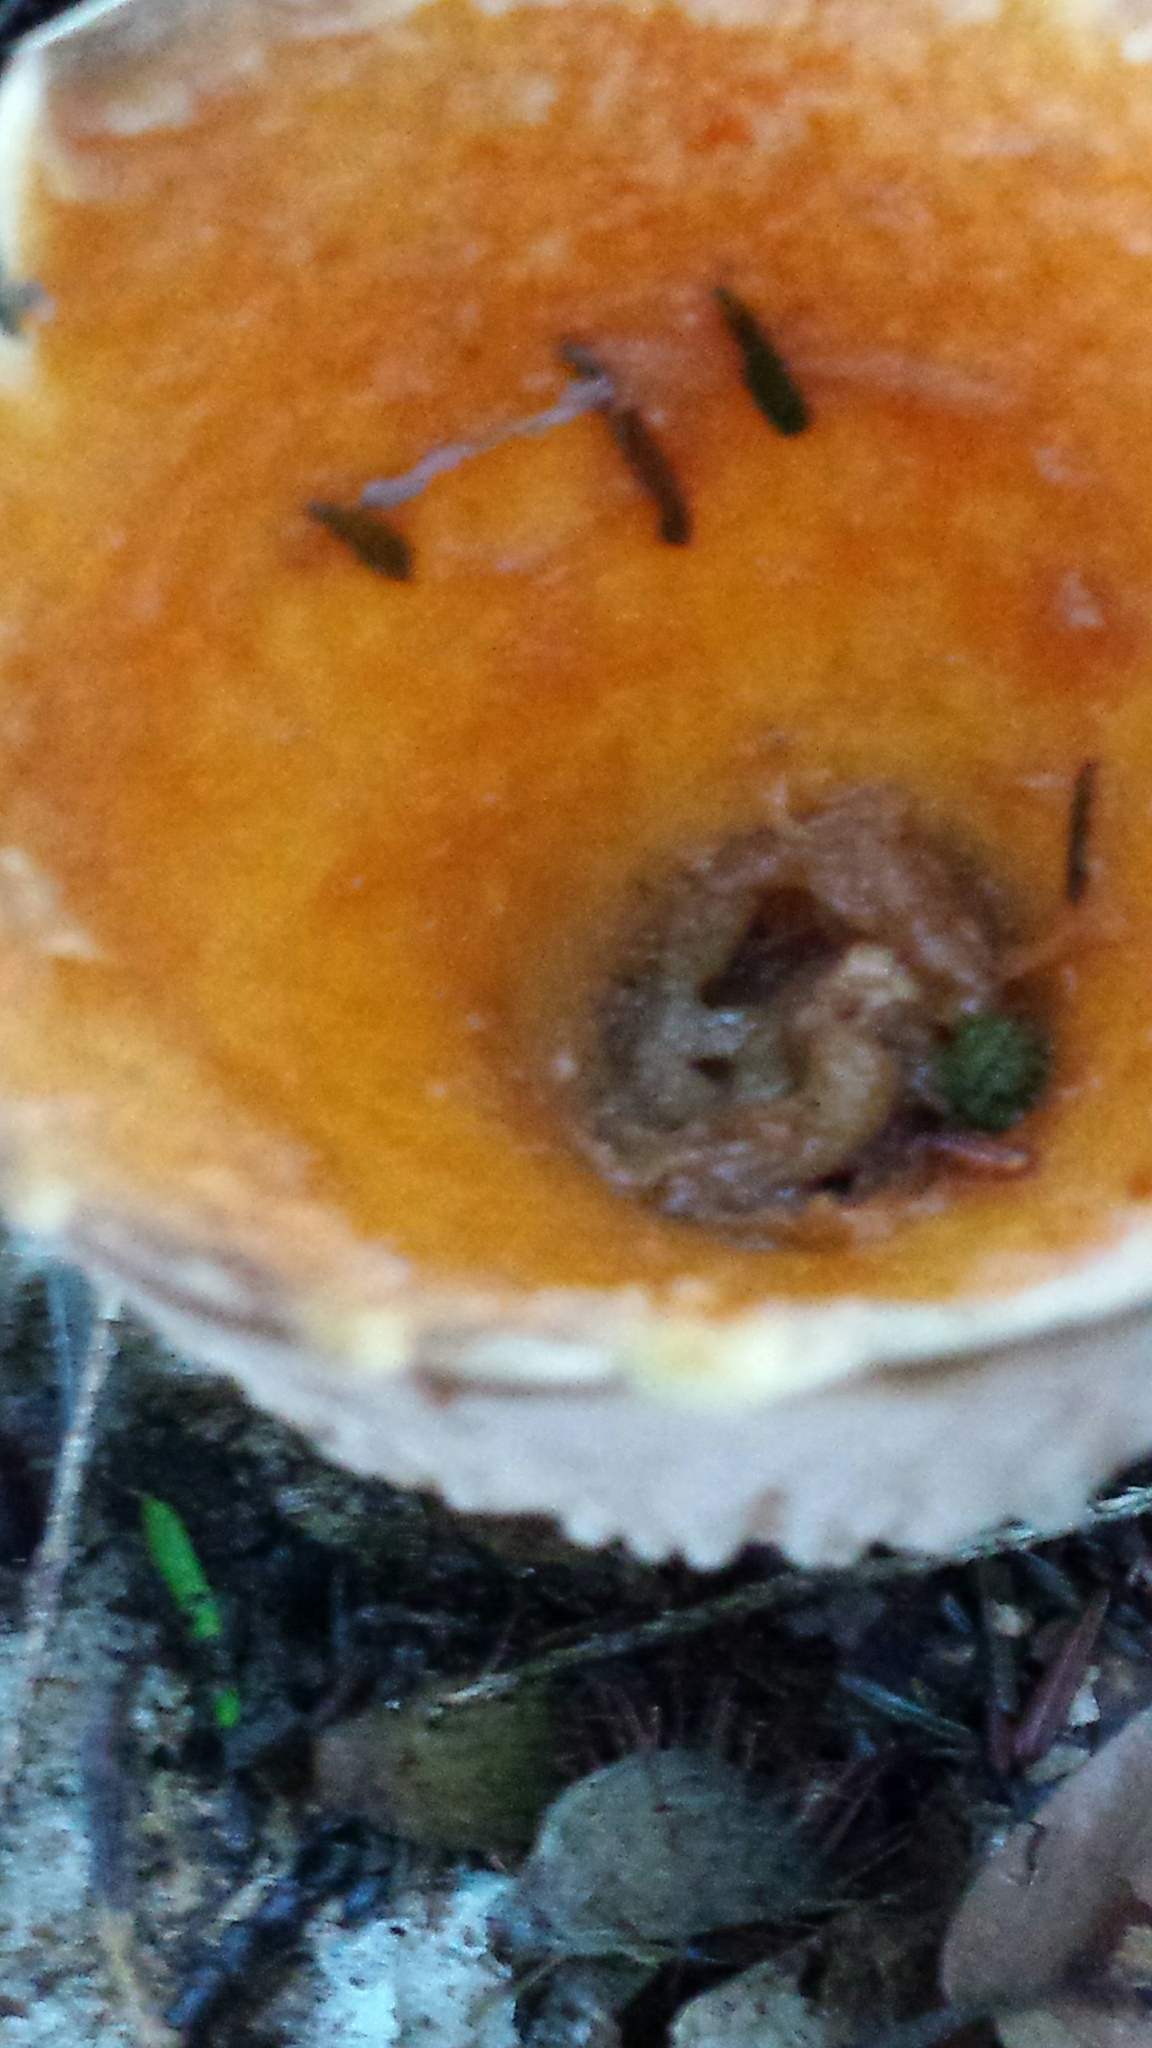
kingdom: Fungi
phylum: Basidiomycota
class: Agaricomycetes
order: Gomphales
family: Gomphaceae
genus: Turbinellus
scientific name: Turbinellus floccosus
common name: Scaly chanterelle
